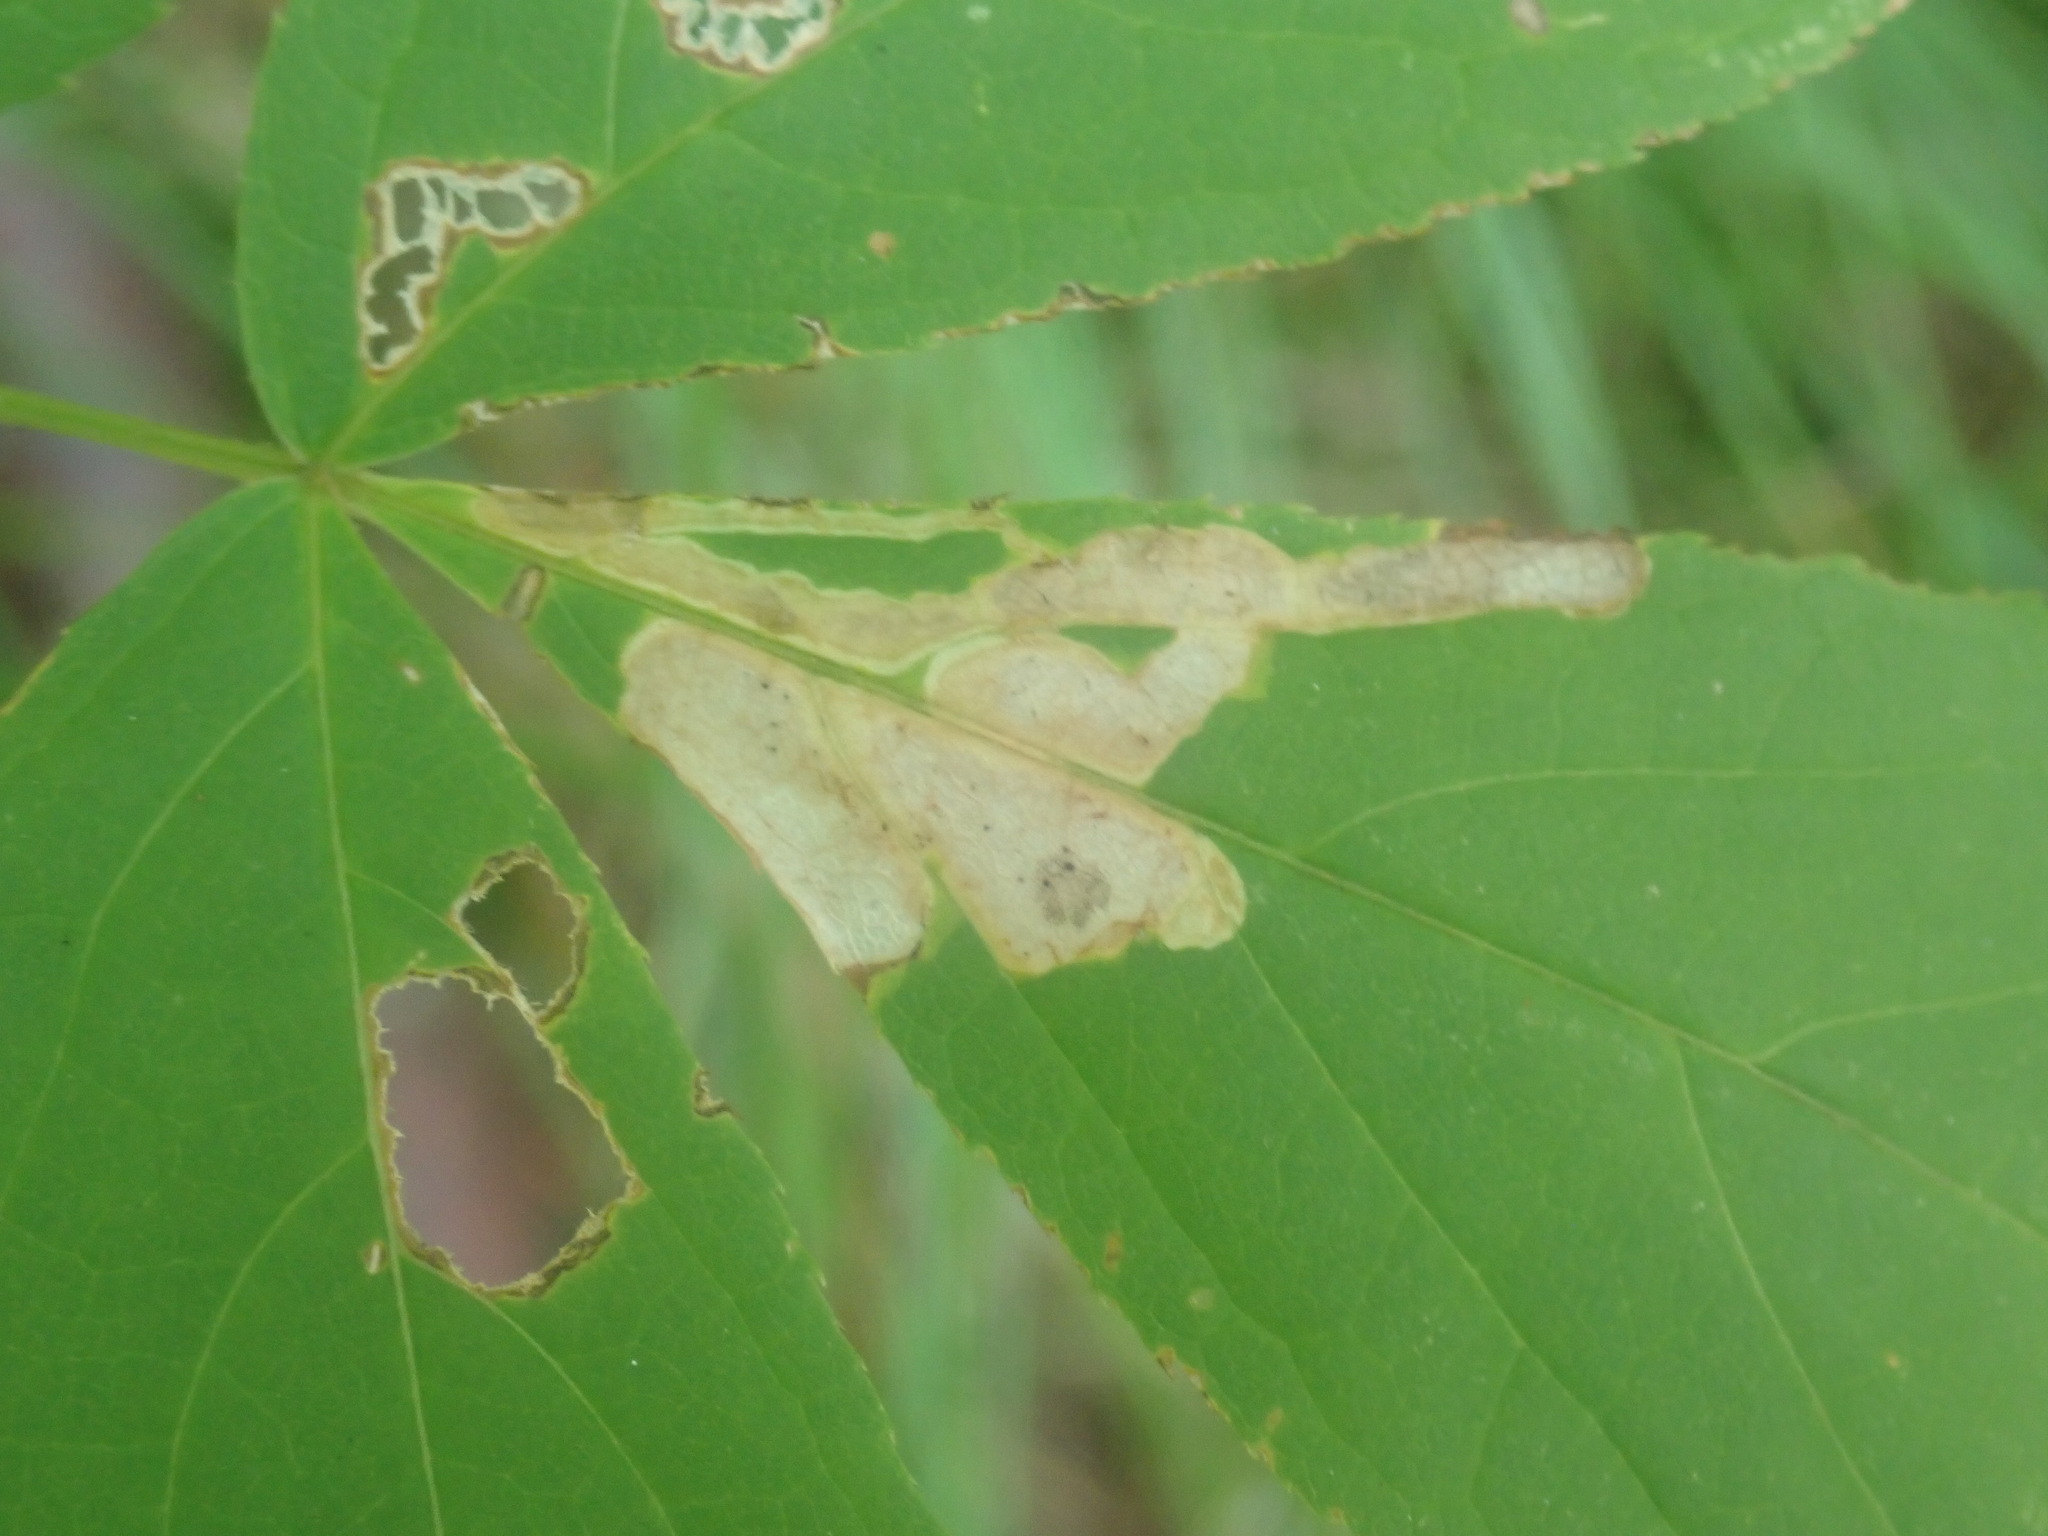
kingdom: Animalia
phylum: Arthropoda
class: Insecta
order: Diptera
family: Agromyzidae
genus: Phytomyza
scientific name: Phytomyza aralivora
